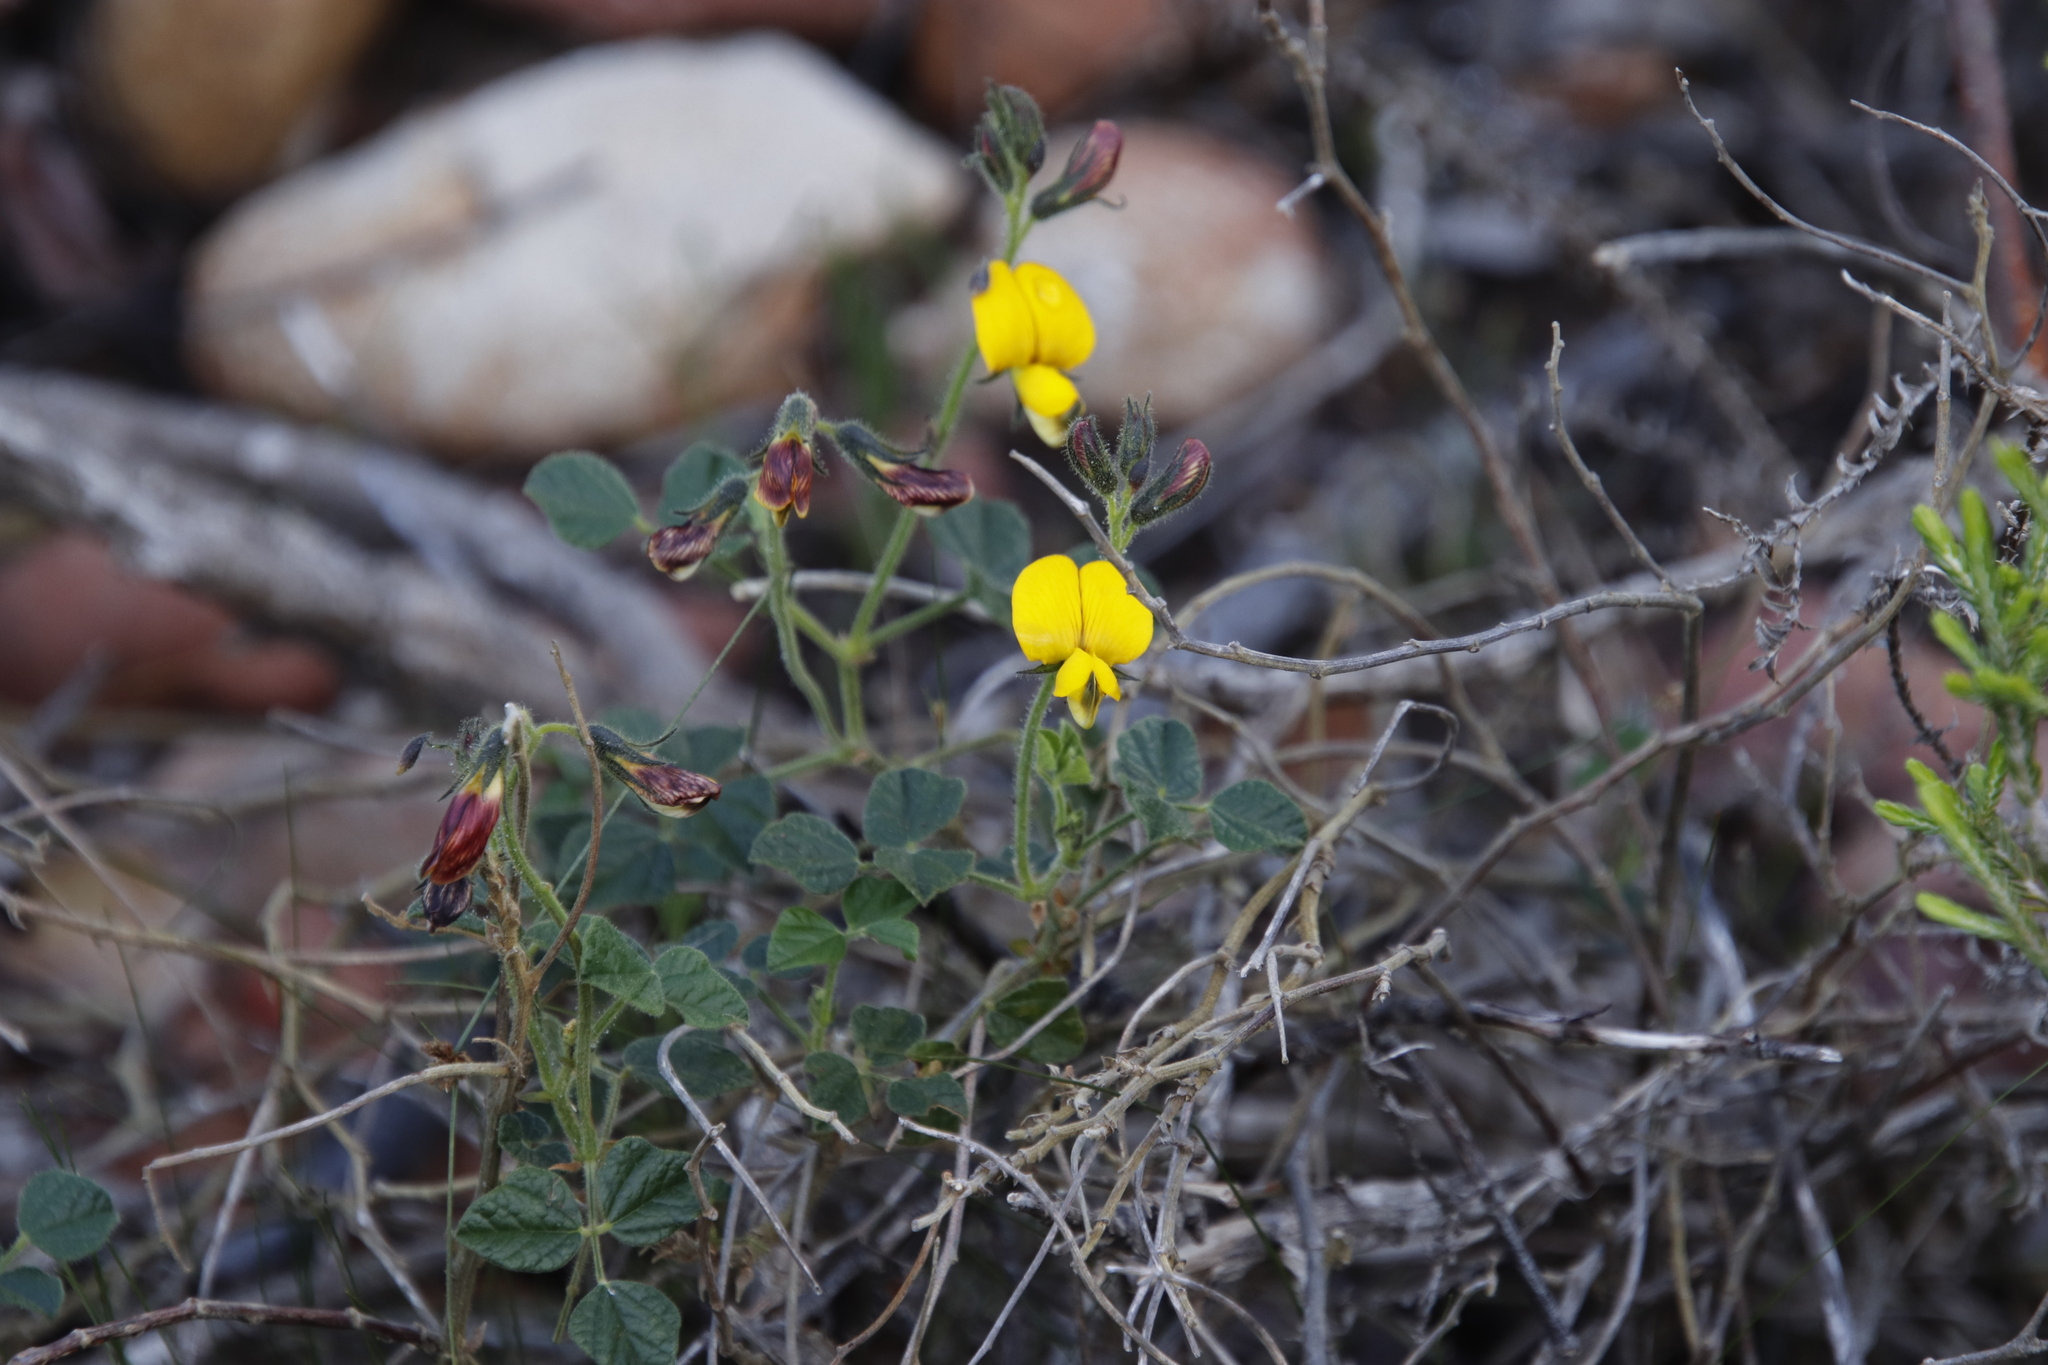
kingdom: Plantae
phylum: Tracheophyta
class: Magnoliopsida
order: Fabales
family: Fabaceae
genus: Bolusafra
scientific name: Bolusafra bituminosa
